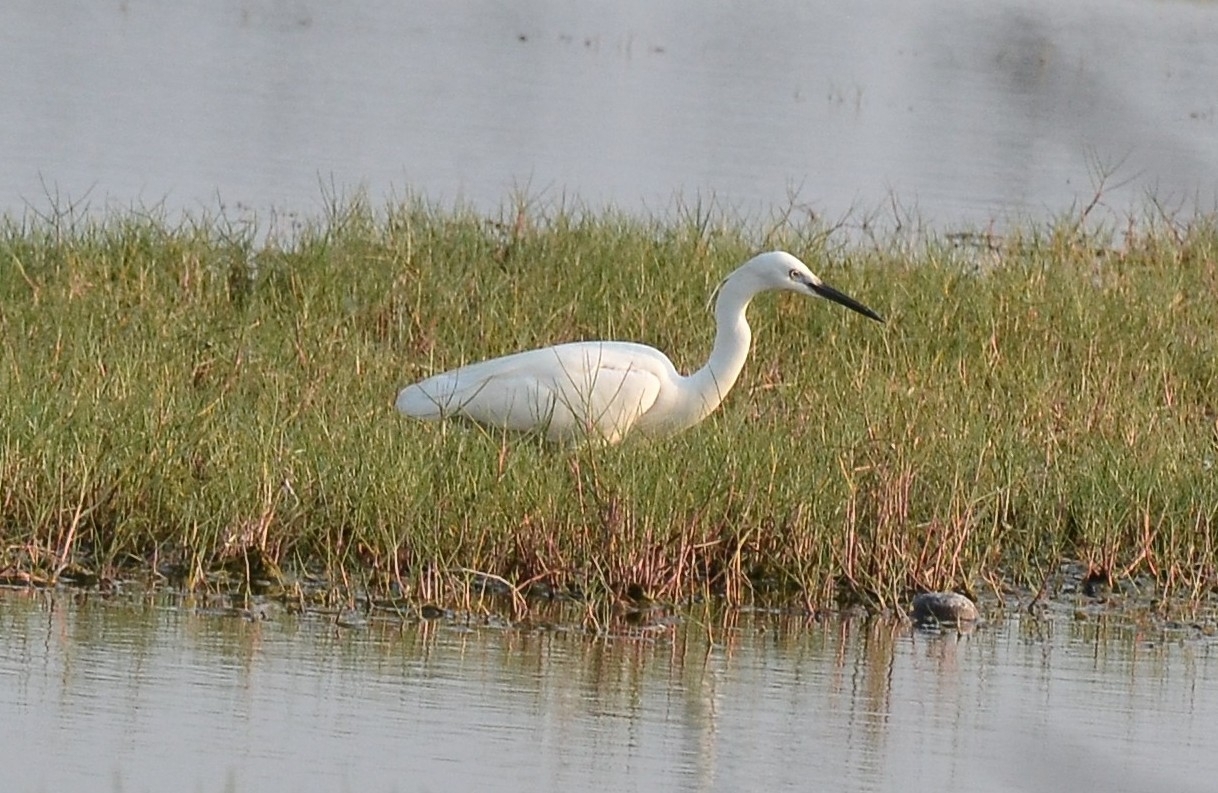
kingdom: Animalia
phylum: Chordata
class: Aves
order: Pelecaniformes
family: Ardeidae
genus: Egretta
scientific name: Egretta garzetta
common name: Little egret
